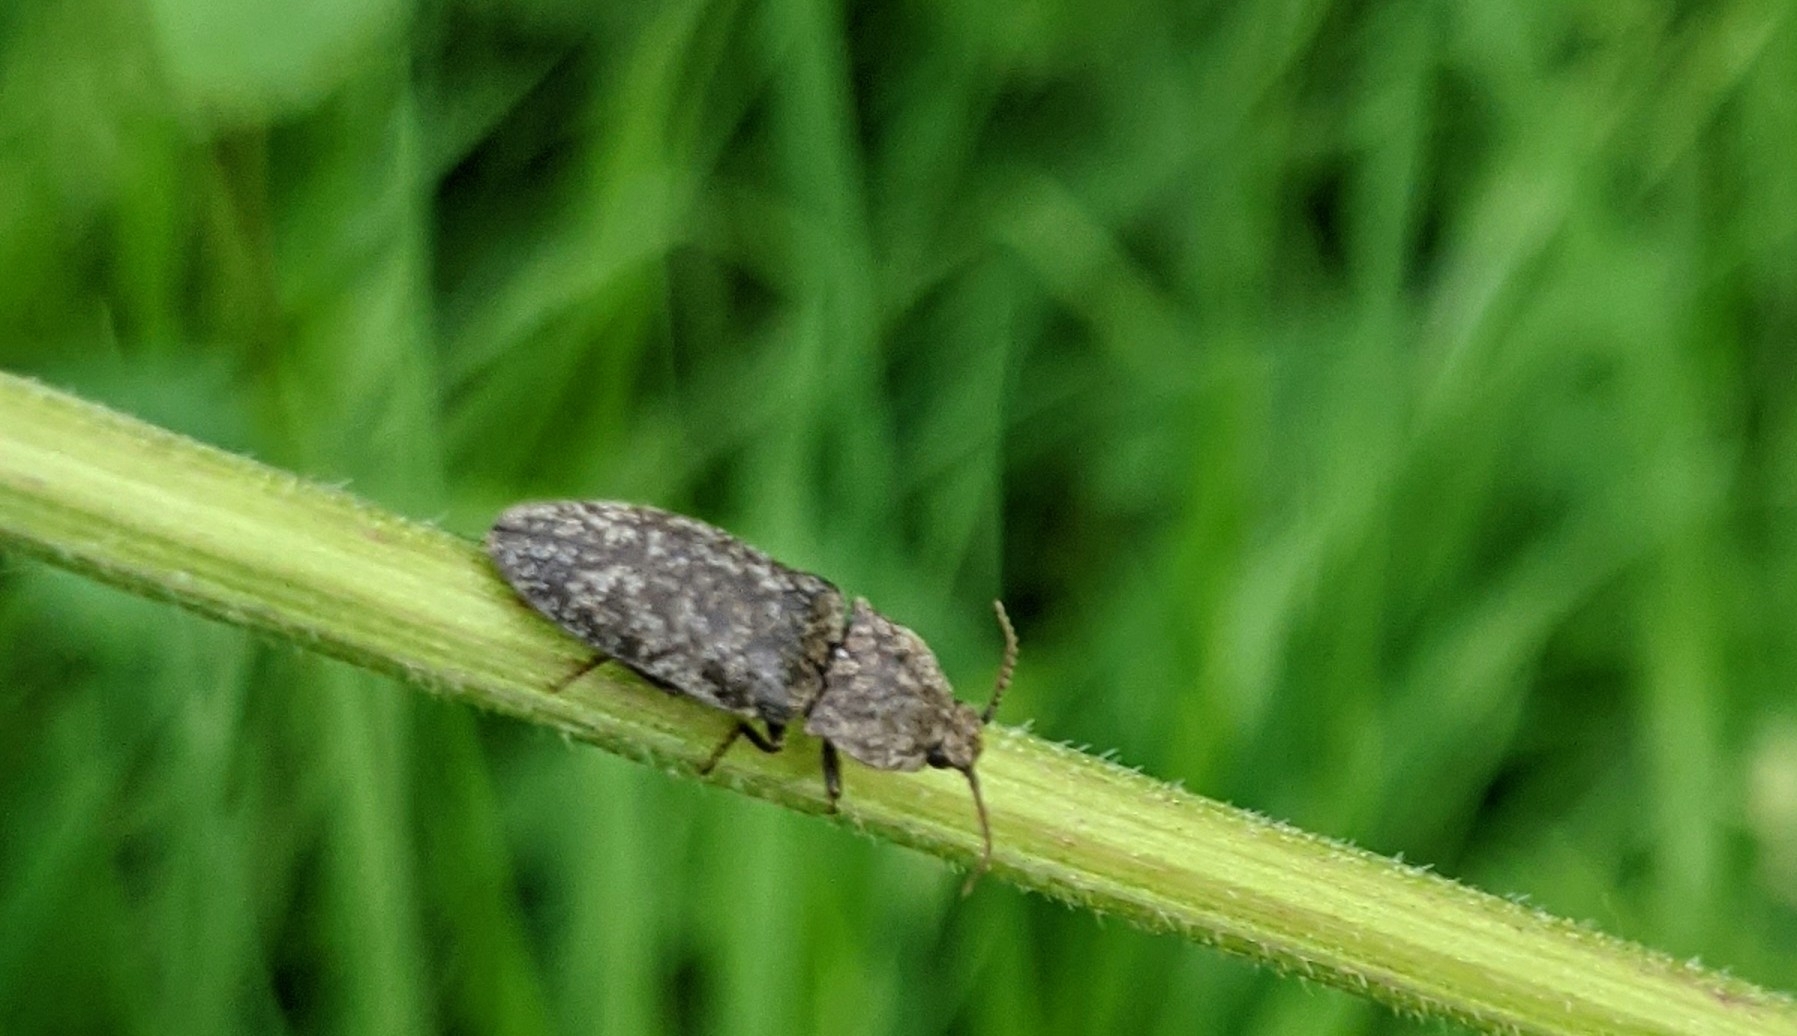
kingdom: Animalia
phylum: Arthropoda
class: Insecta
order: Coleoptera
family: Elateridae
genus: Agrypnus
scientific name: Agrypnus murinus
